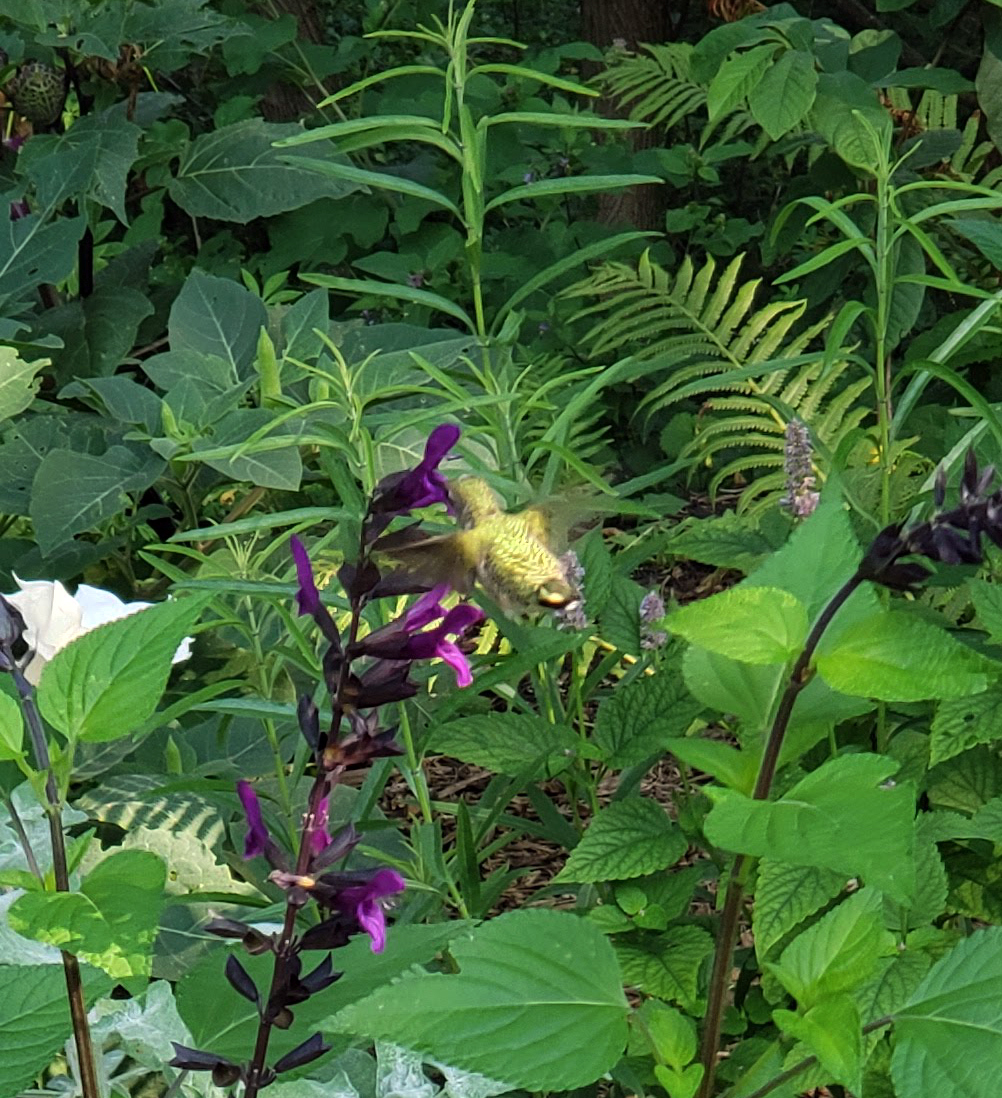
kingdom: Animalia
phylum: Chordata
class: Aves
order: Apodiformes
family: Trochilidae
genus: Archilochus
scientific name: Archilochus colubris
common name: Ruby-throated hummingbird
